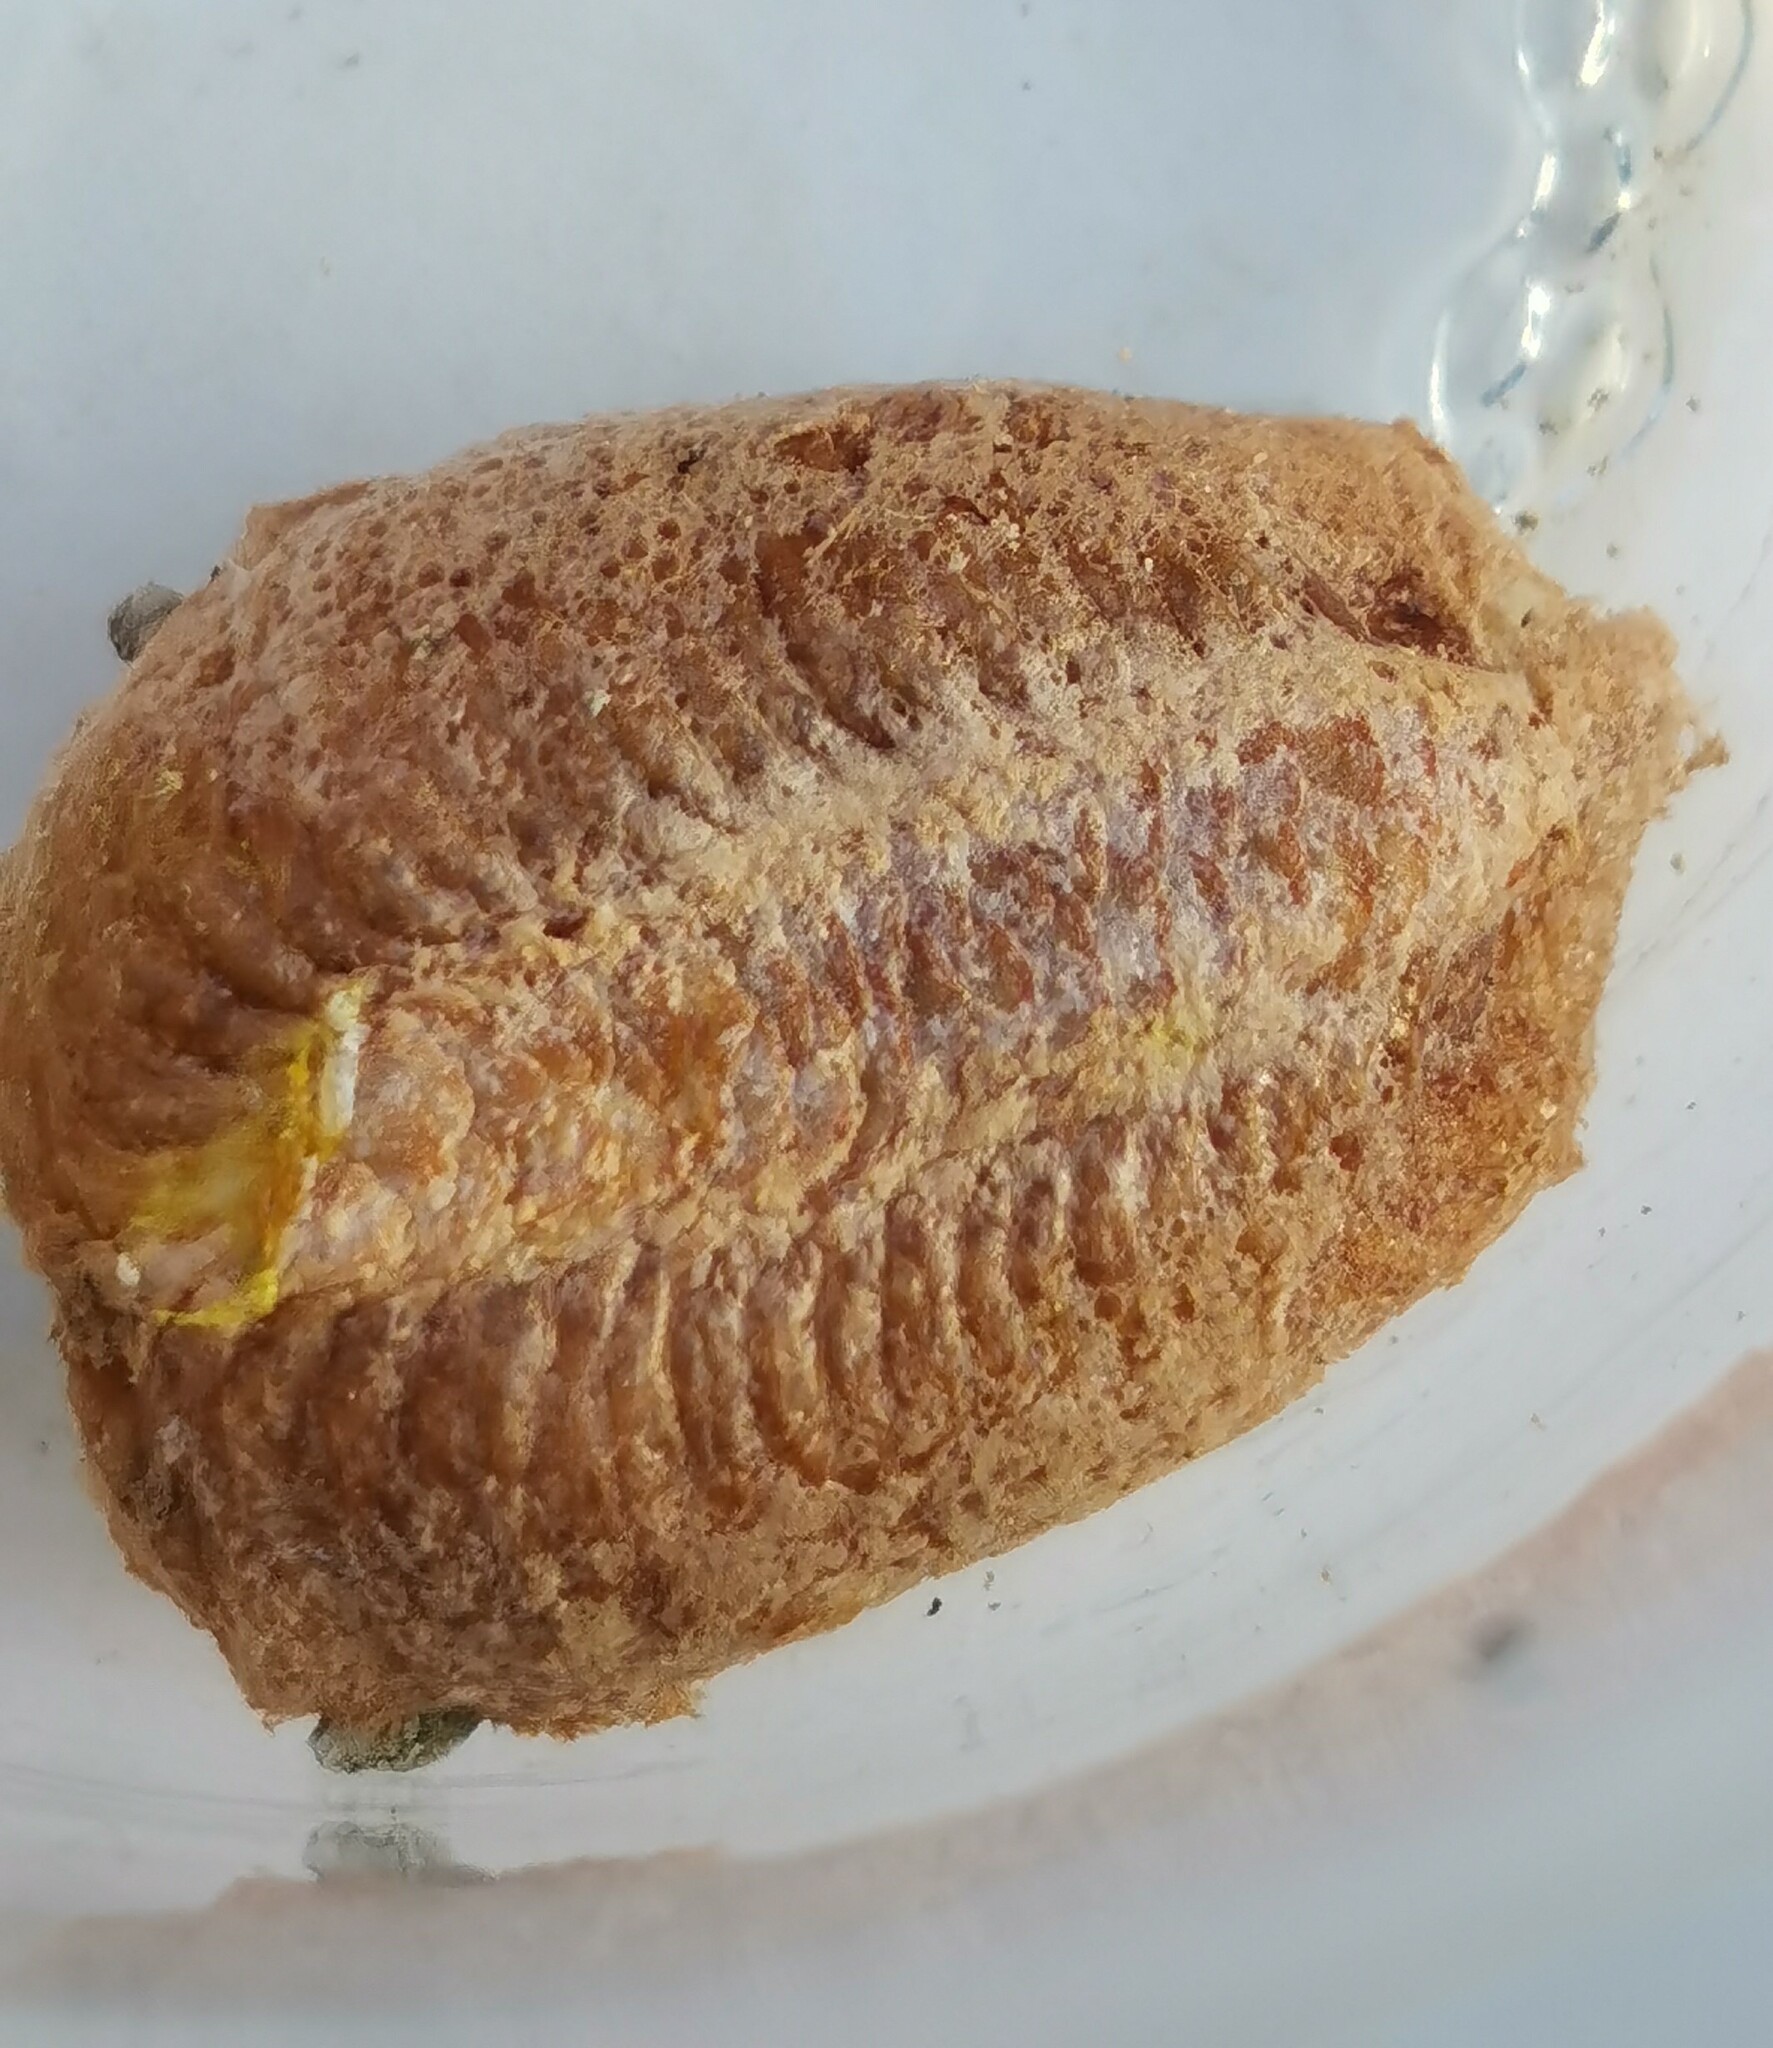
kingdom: Animalia
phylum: Arthropoda
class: Insecta
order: Mantodea
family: Mantidae
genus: Mantis
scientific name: Mantis religiosa
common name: Praying mantis
